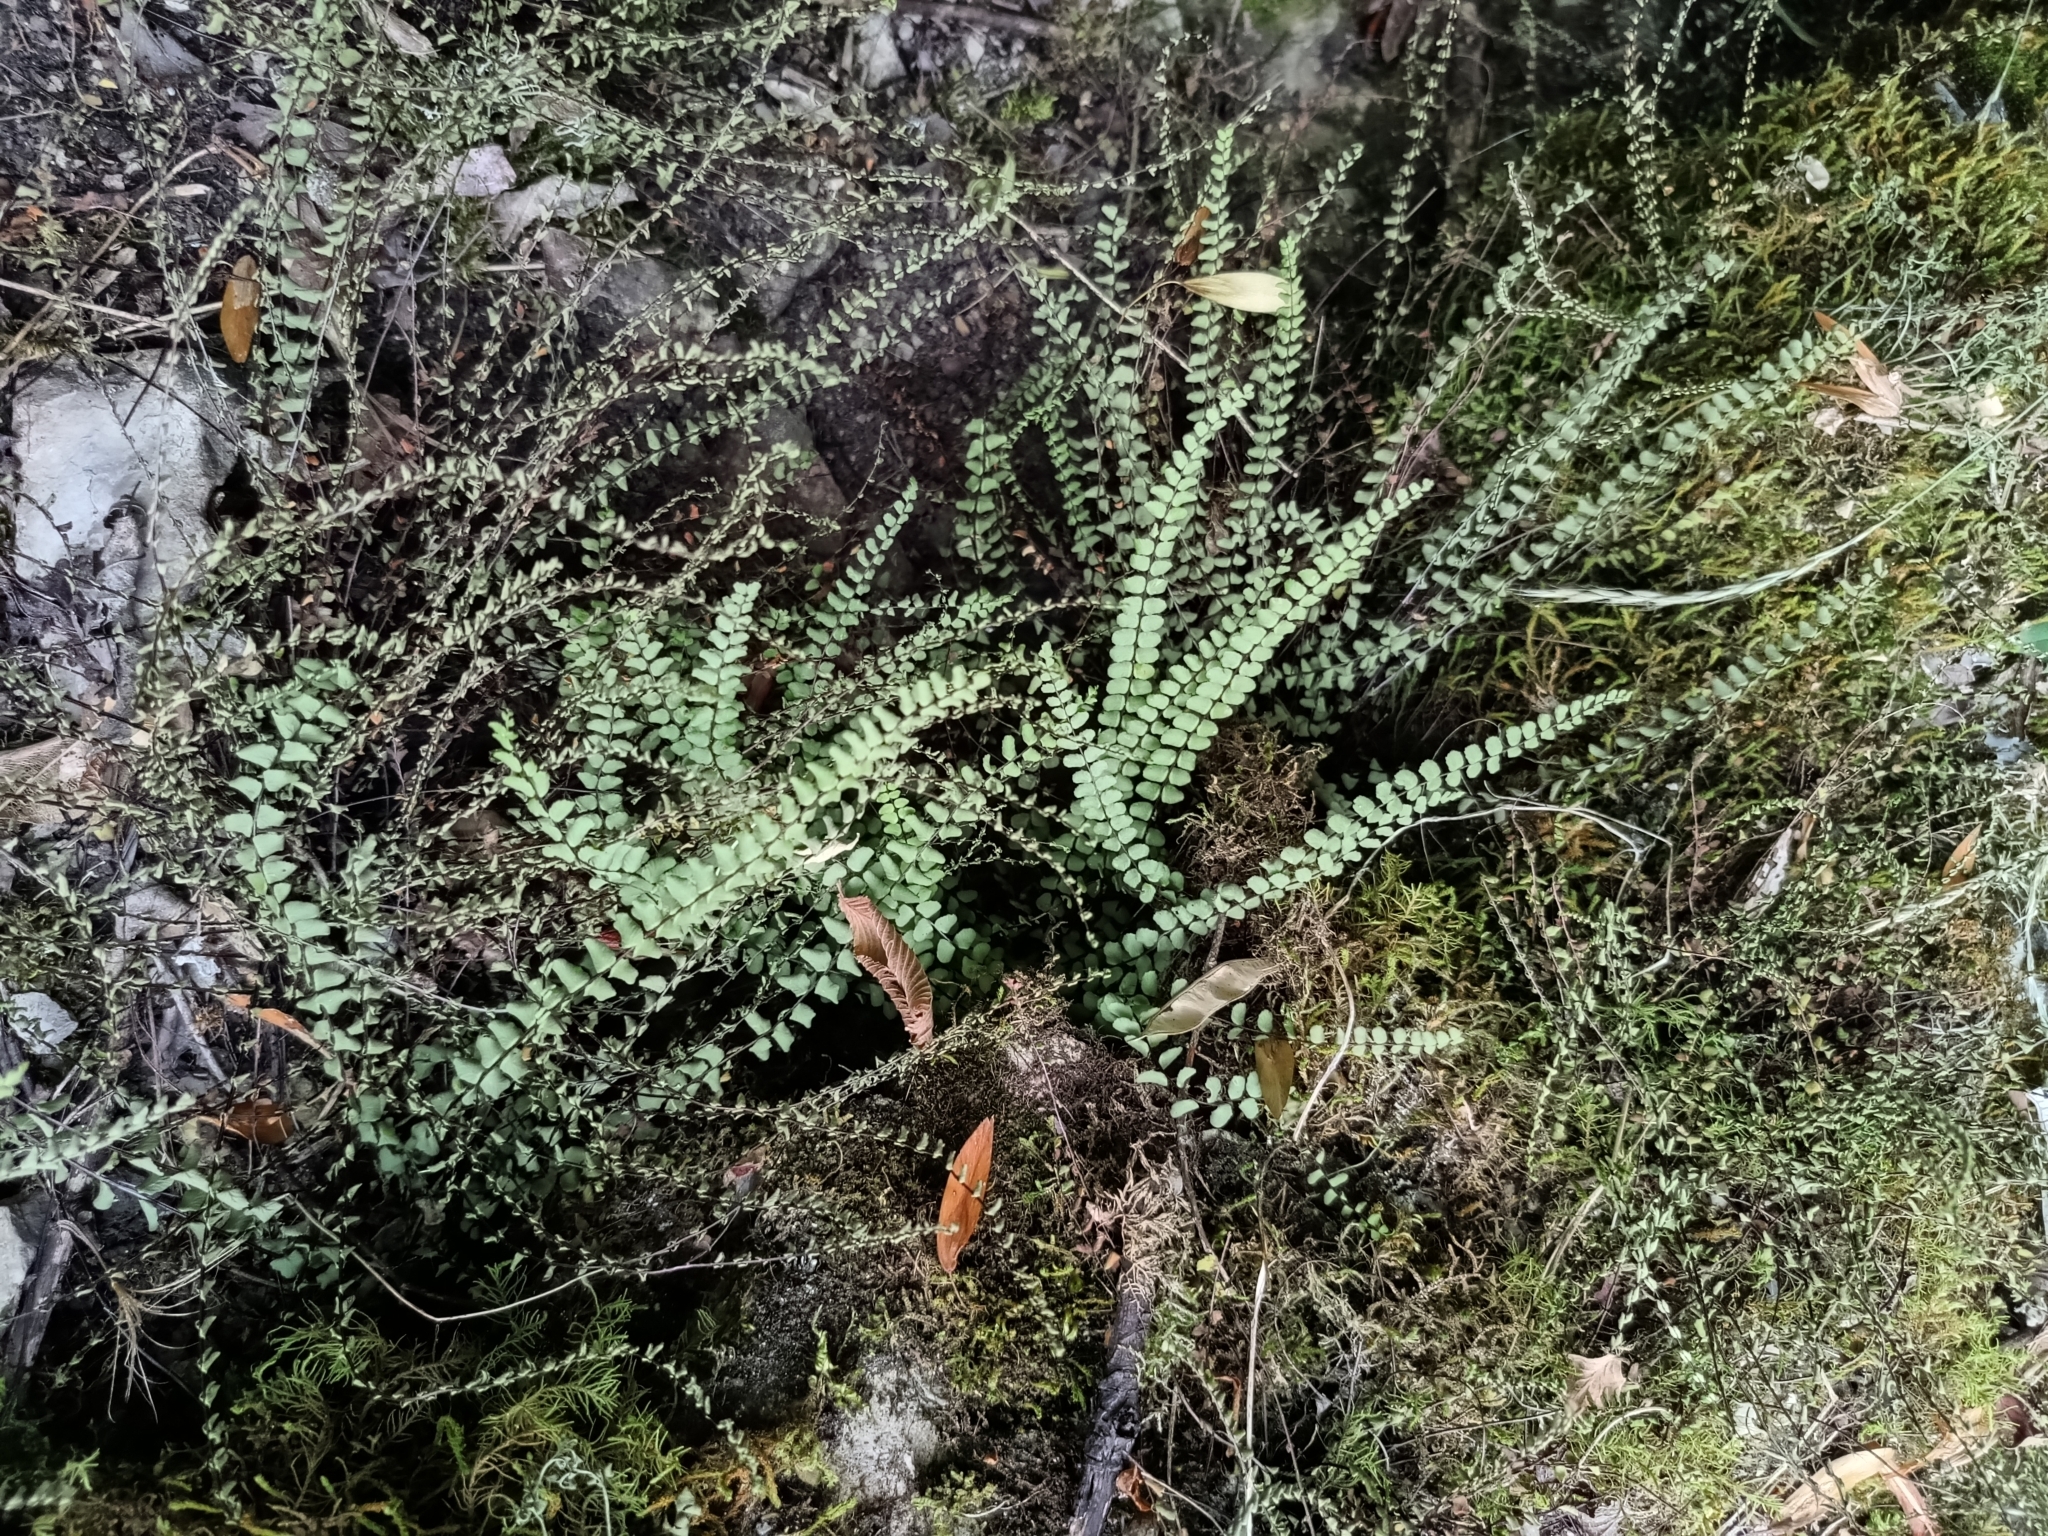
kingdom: Plantae
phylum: Tracheophyta
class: Polypodiopsida
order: Polypodiales
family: Aspleniaceae
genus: Asplenium
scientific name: Asplenium trichomanes
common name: Maidenhair spleenwort
